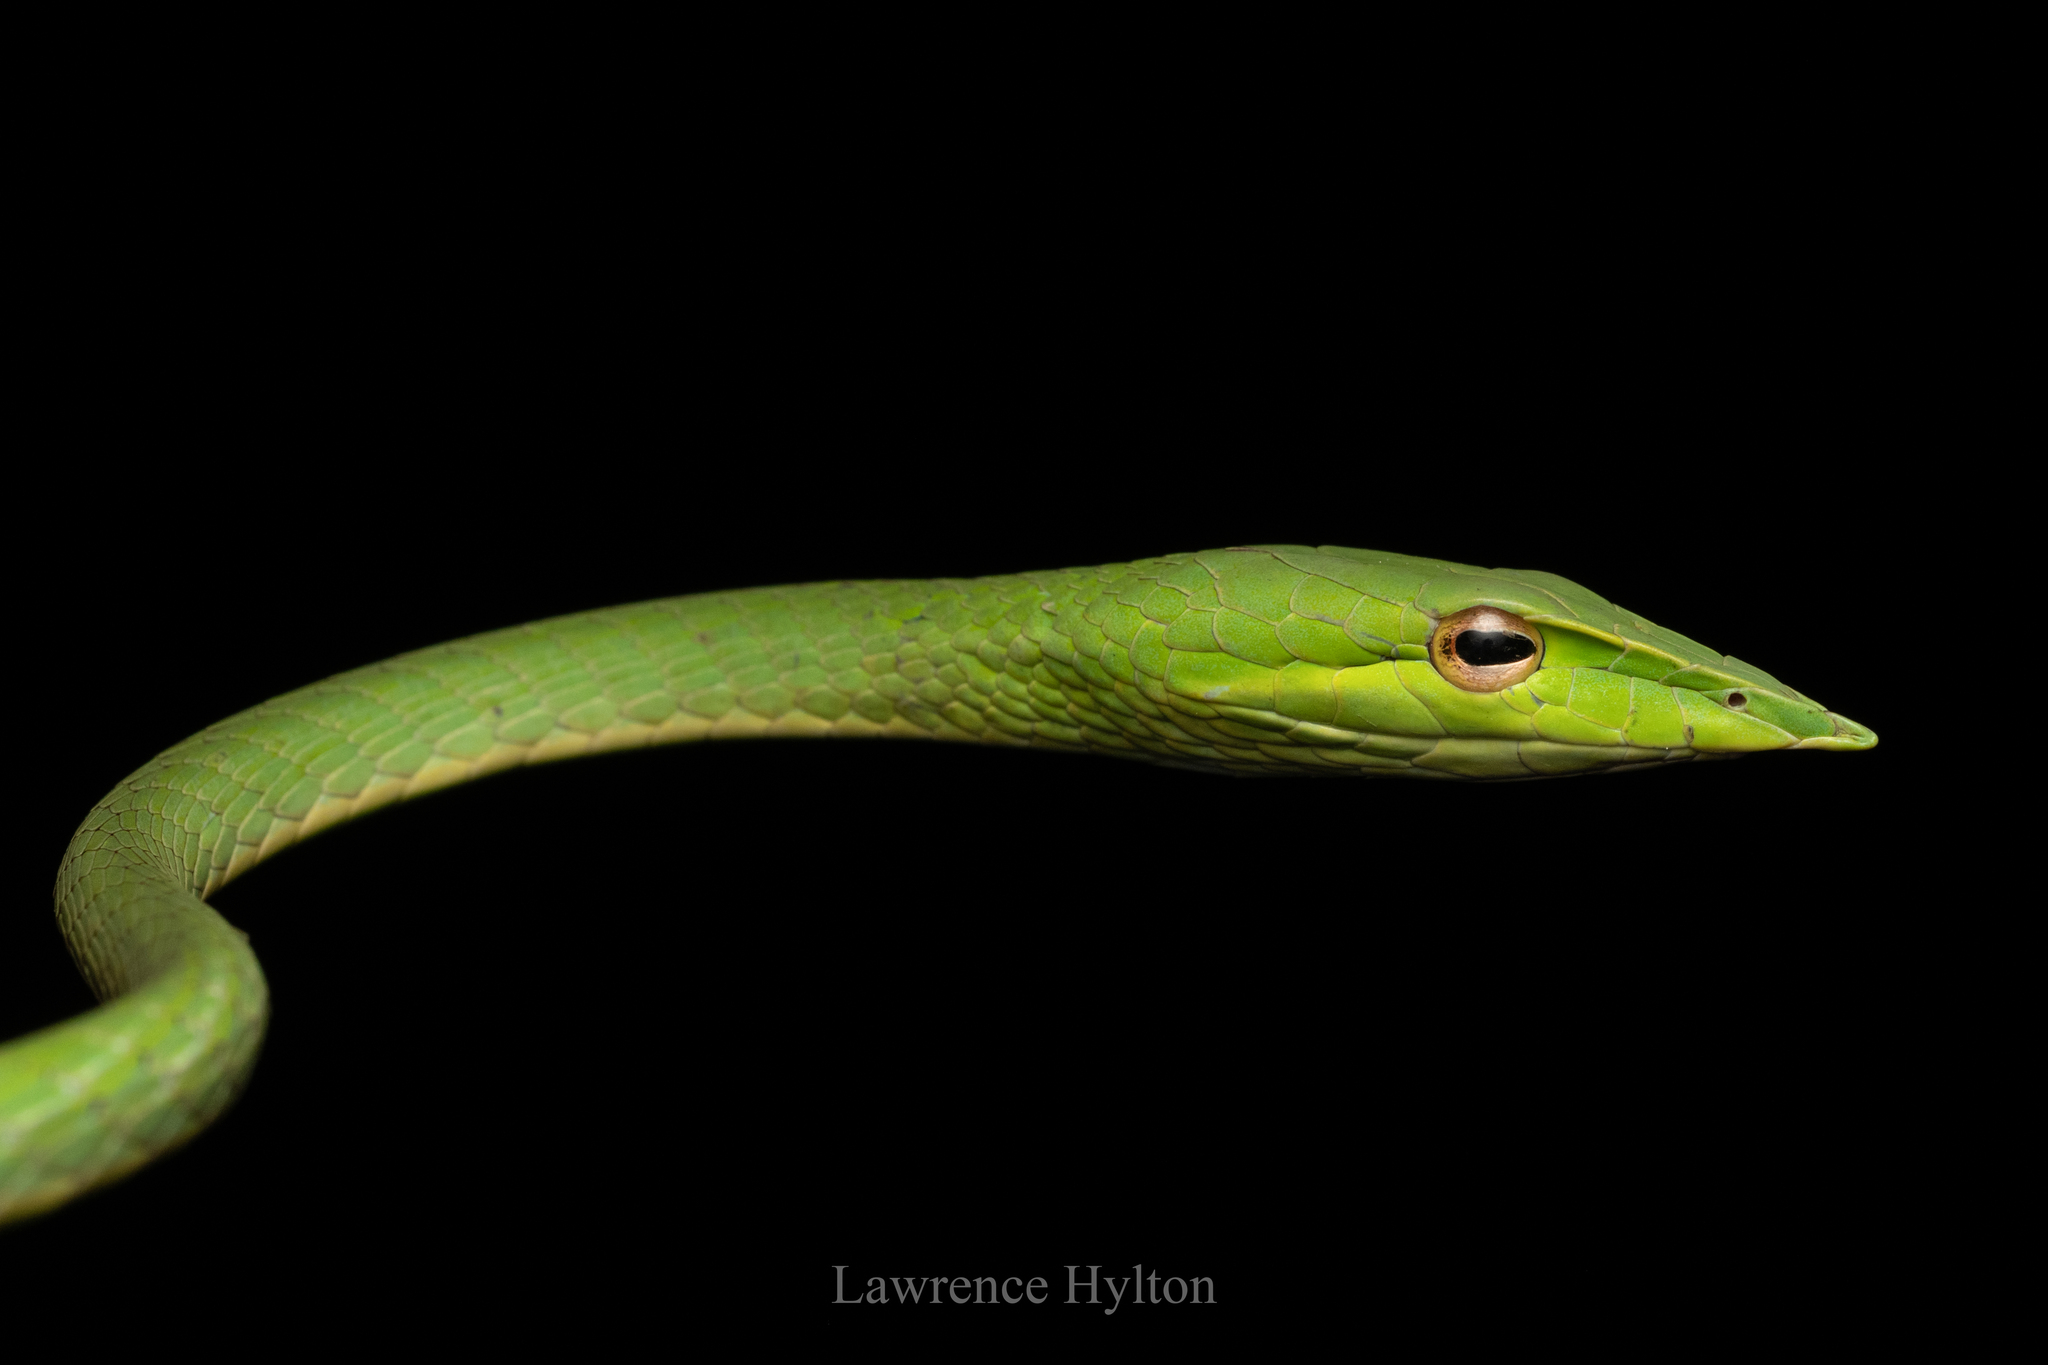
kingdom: Animalia
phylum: Chordata
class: Squamata
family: Colubridae
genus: Ahaetulla
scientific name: Ahaetulla prasina
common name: Oriental whip snake
